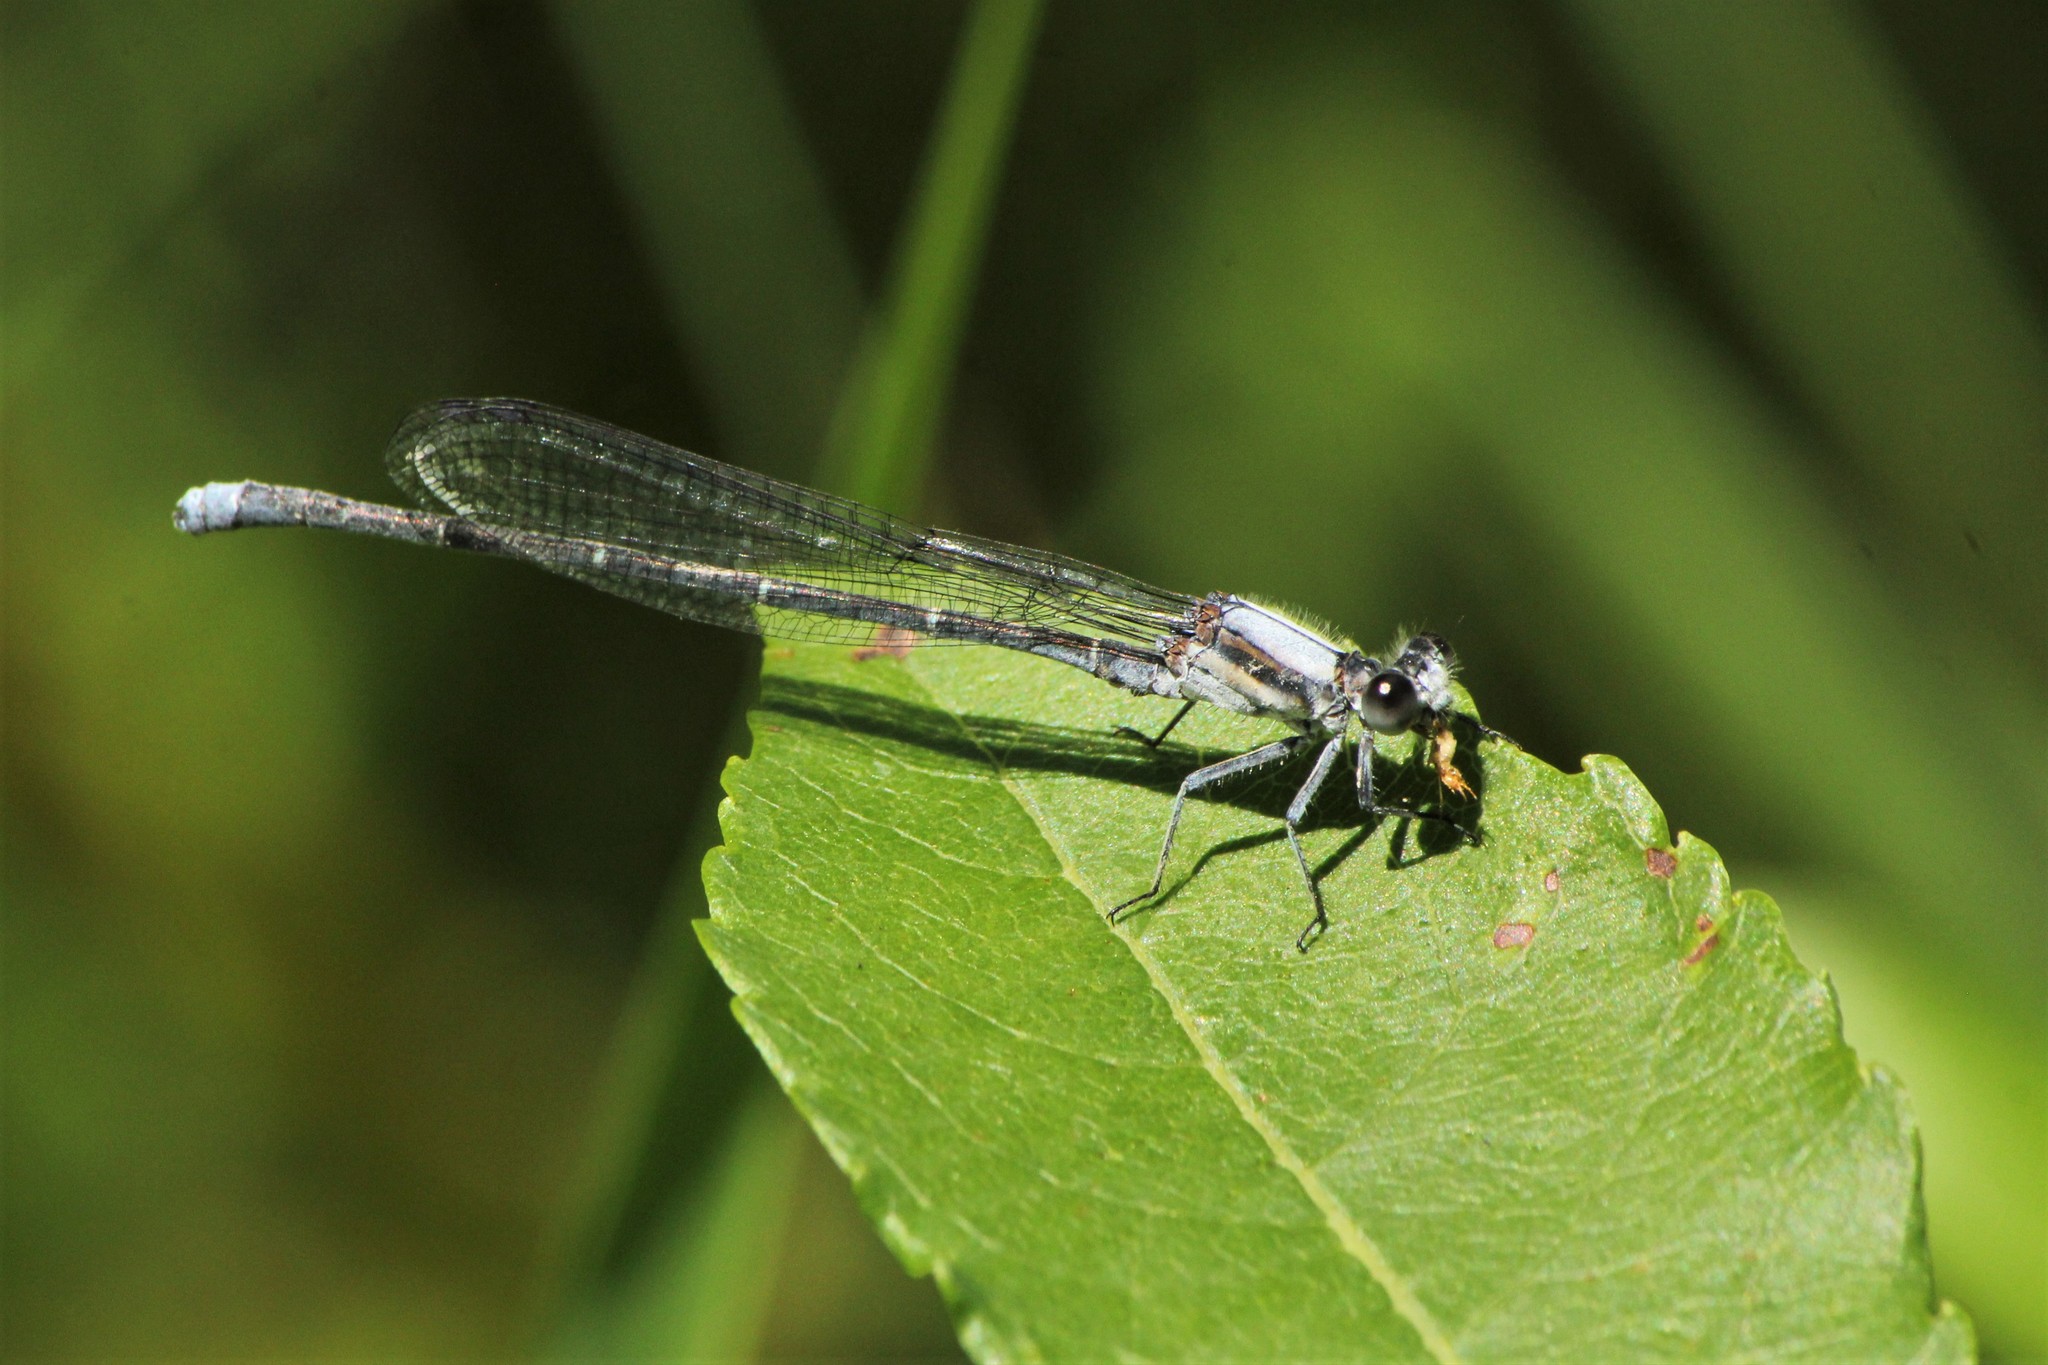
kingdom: Animalia
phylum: Arthropoda
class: Insecta
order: Odonata
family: Coenagrionidae
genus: Argia
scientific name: Argia moesta
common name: Powdered dancer
